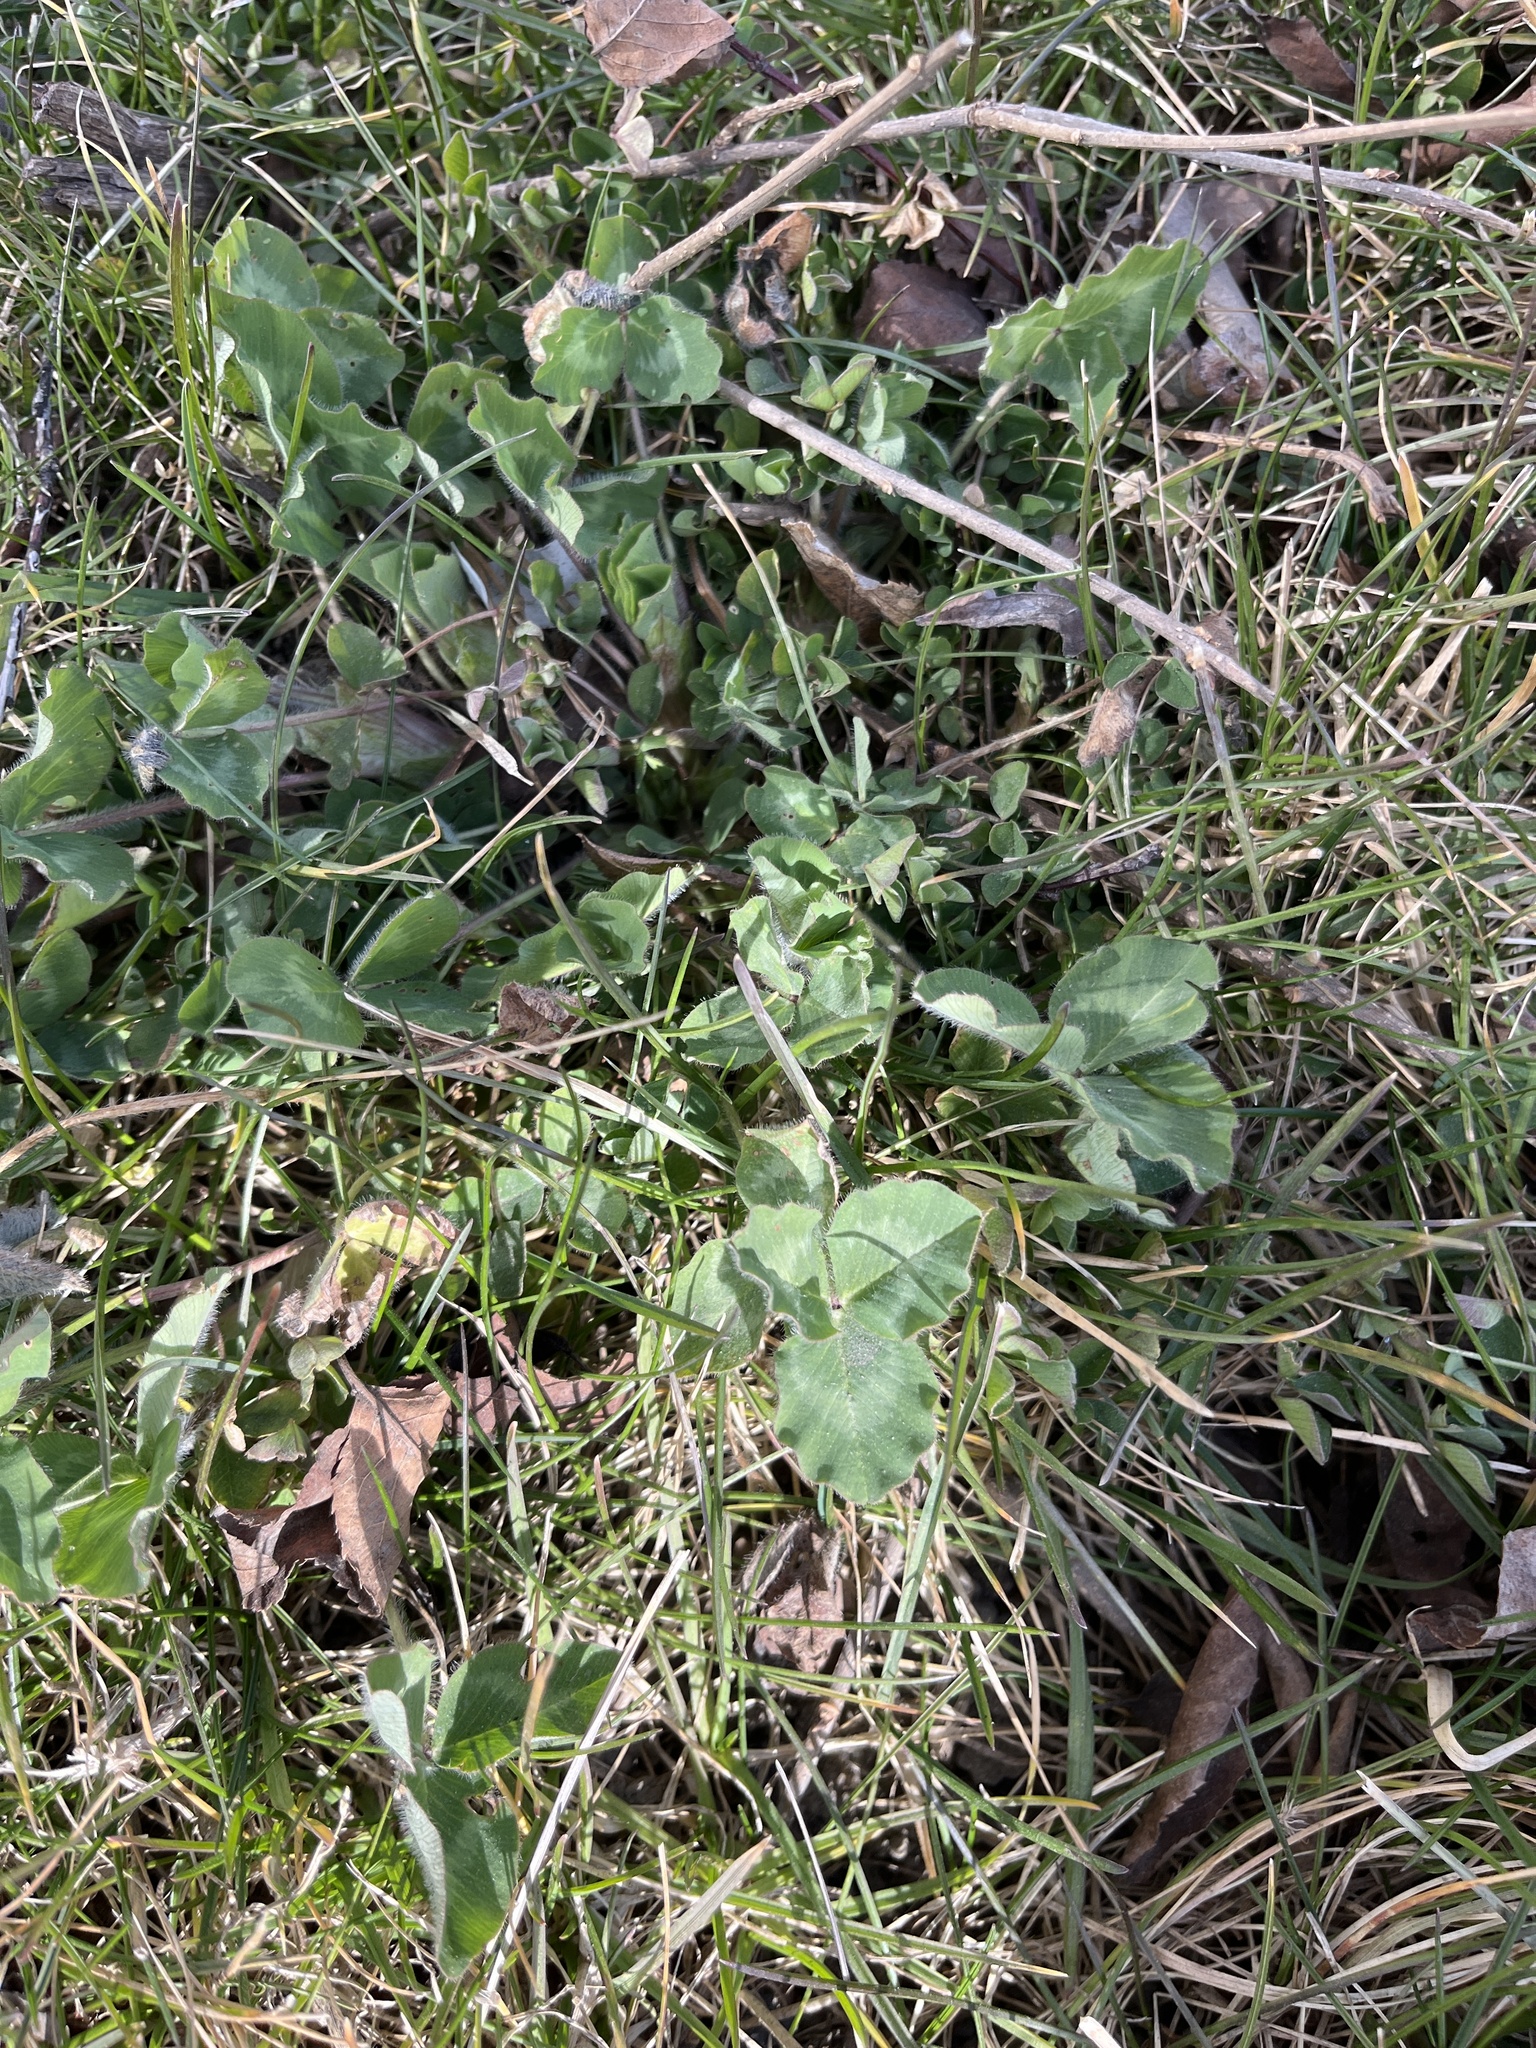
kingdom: Plantae
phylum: Tracheophyta
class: Magnoliopsida
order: Fabales
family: Fabaceae
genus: Trifolium
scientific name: Trifolium pratense
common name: Red clover
